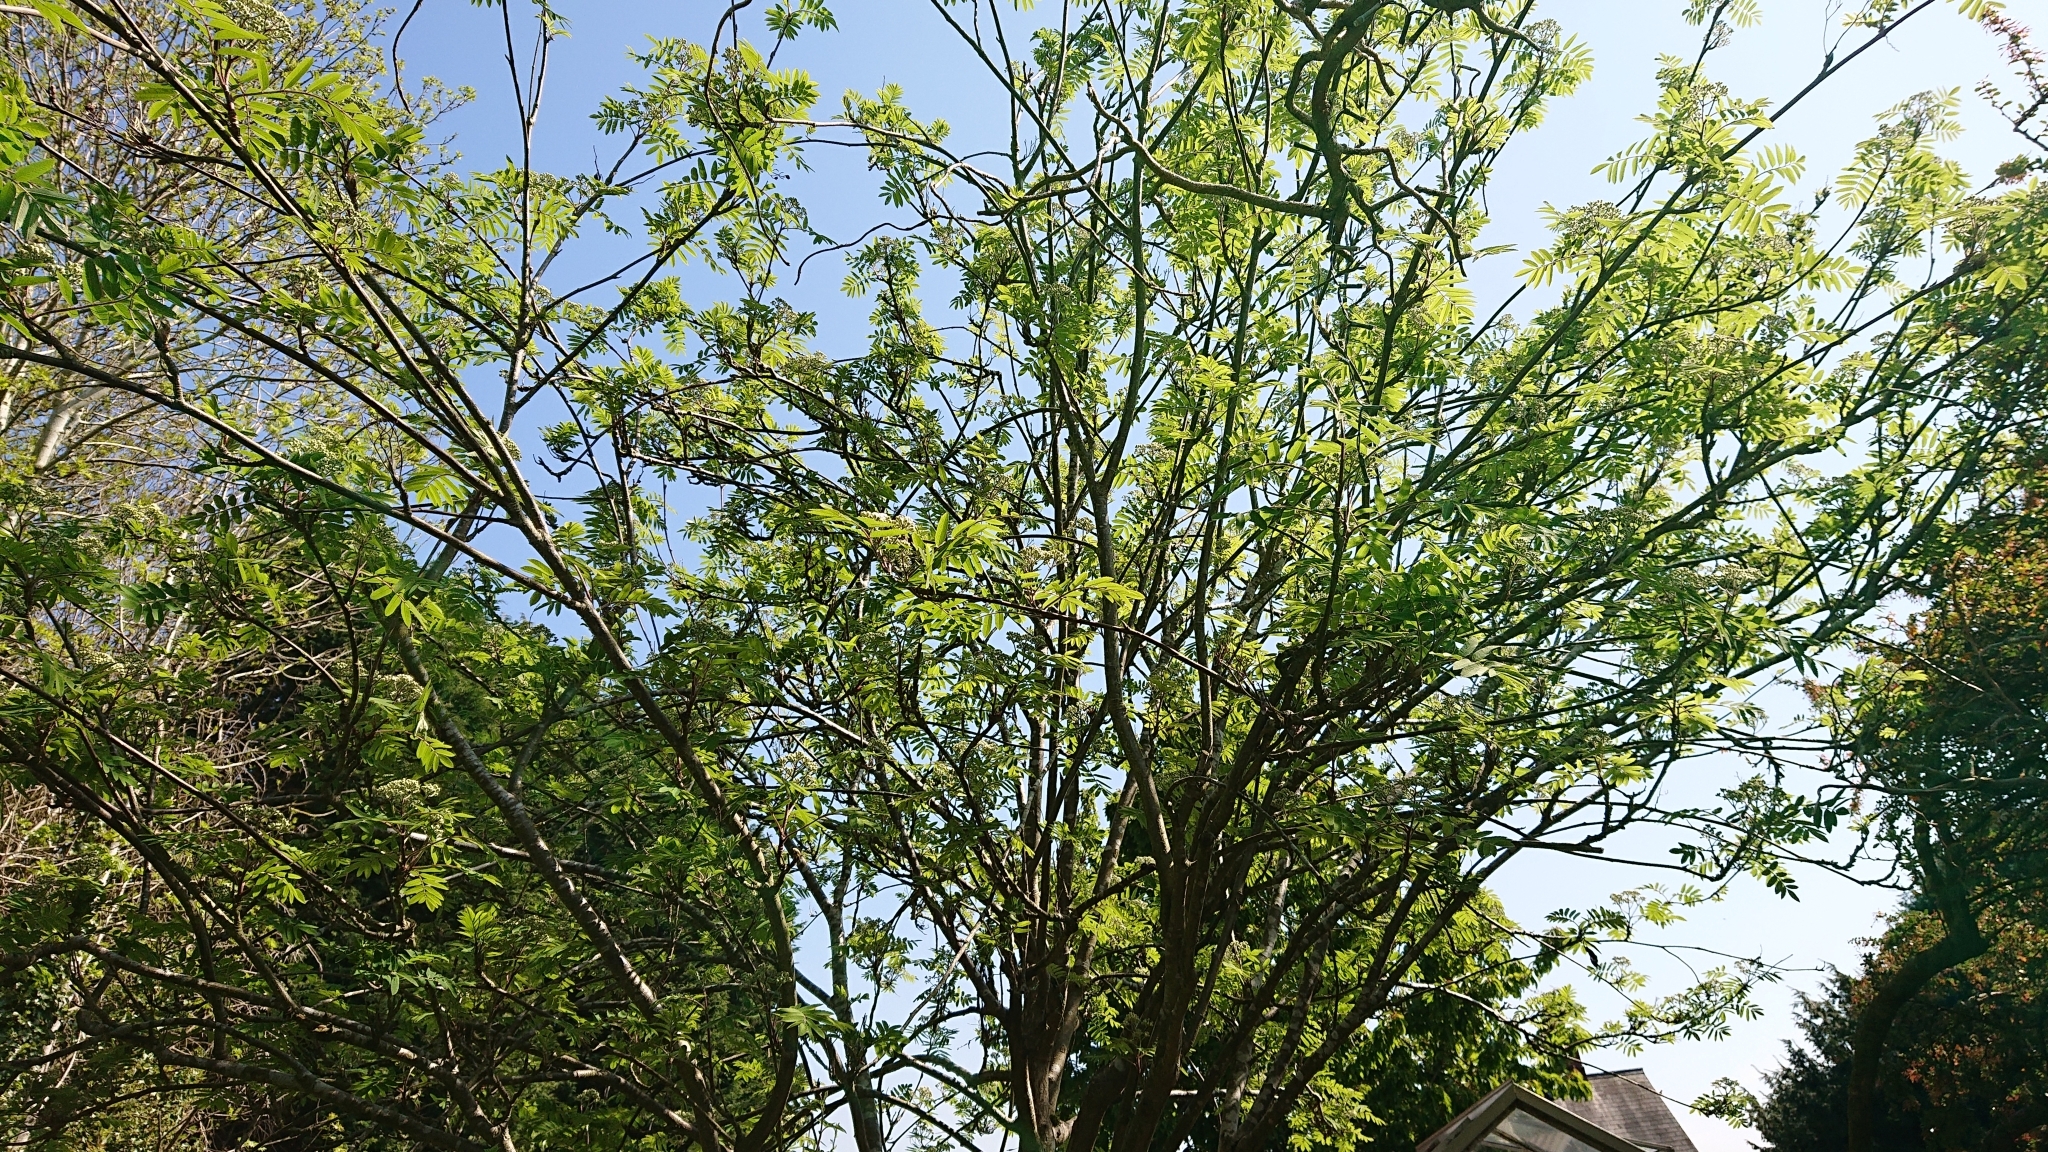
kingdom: Plantae
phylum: Tracheophyta
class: Magnoliopsida
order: Rosales
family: Rosaceae
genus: Sorbus
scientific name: Sorbus aucuparia
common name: Rowan
